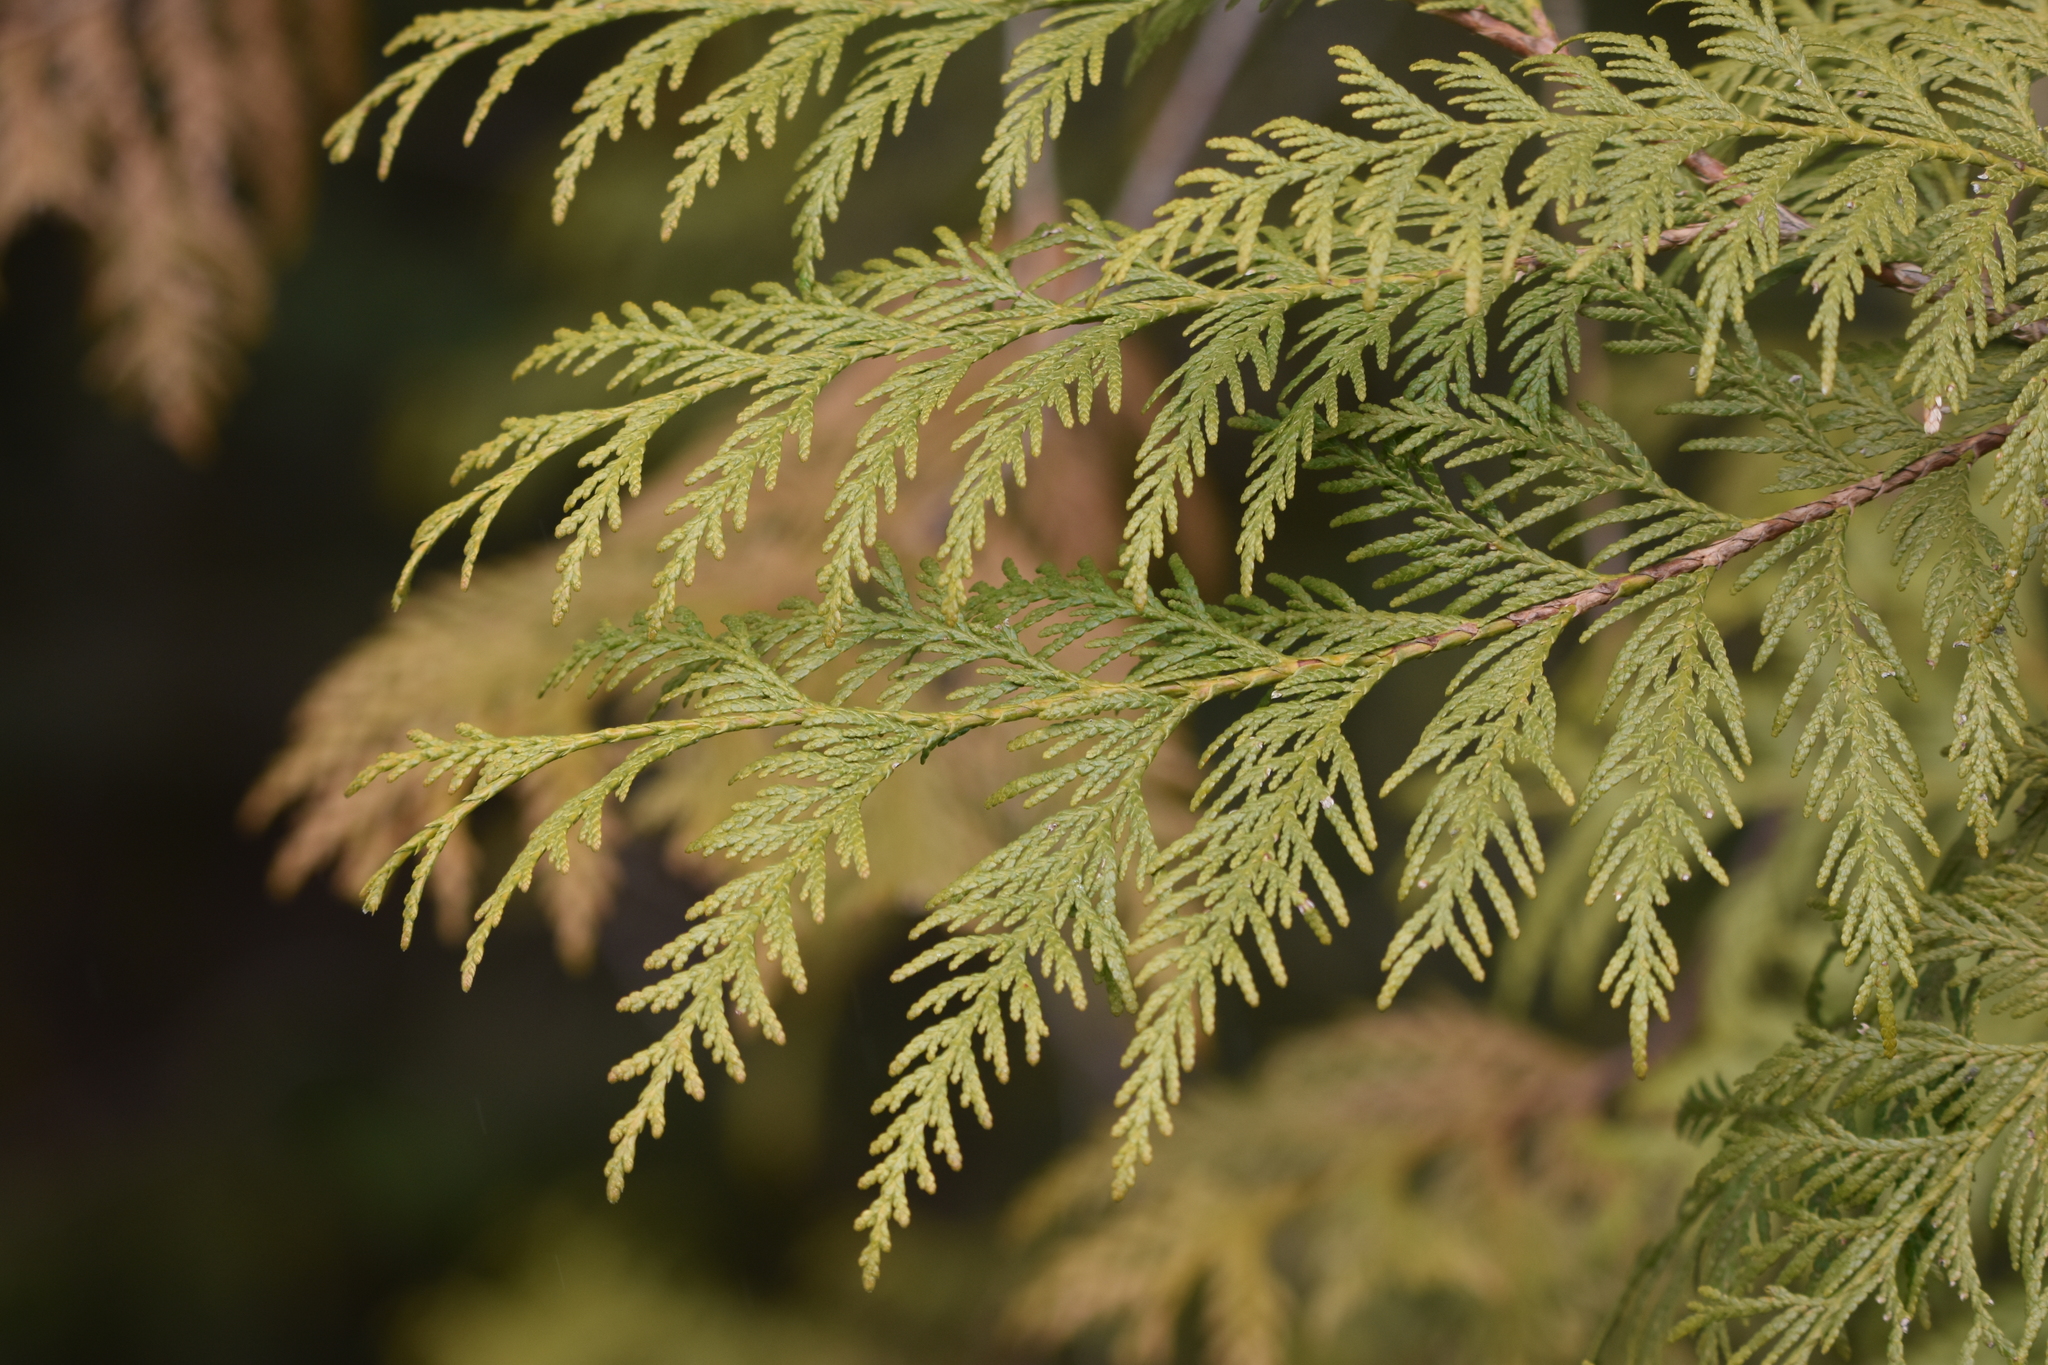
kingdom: Plantae
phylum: Tracheophyta
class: Pinopsida
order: Pinales
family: Cupressaceae
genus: Thuja
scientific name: Thuja plicata
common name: Western red-cedar
